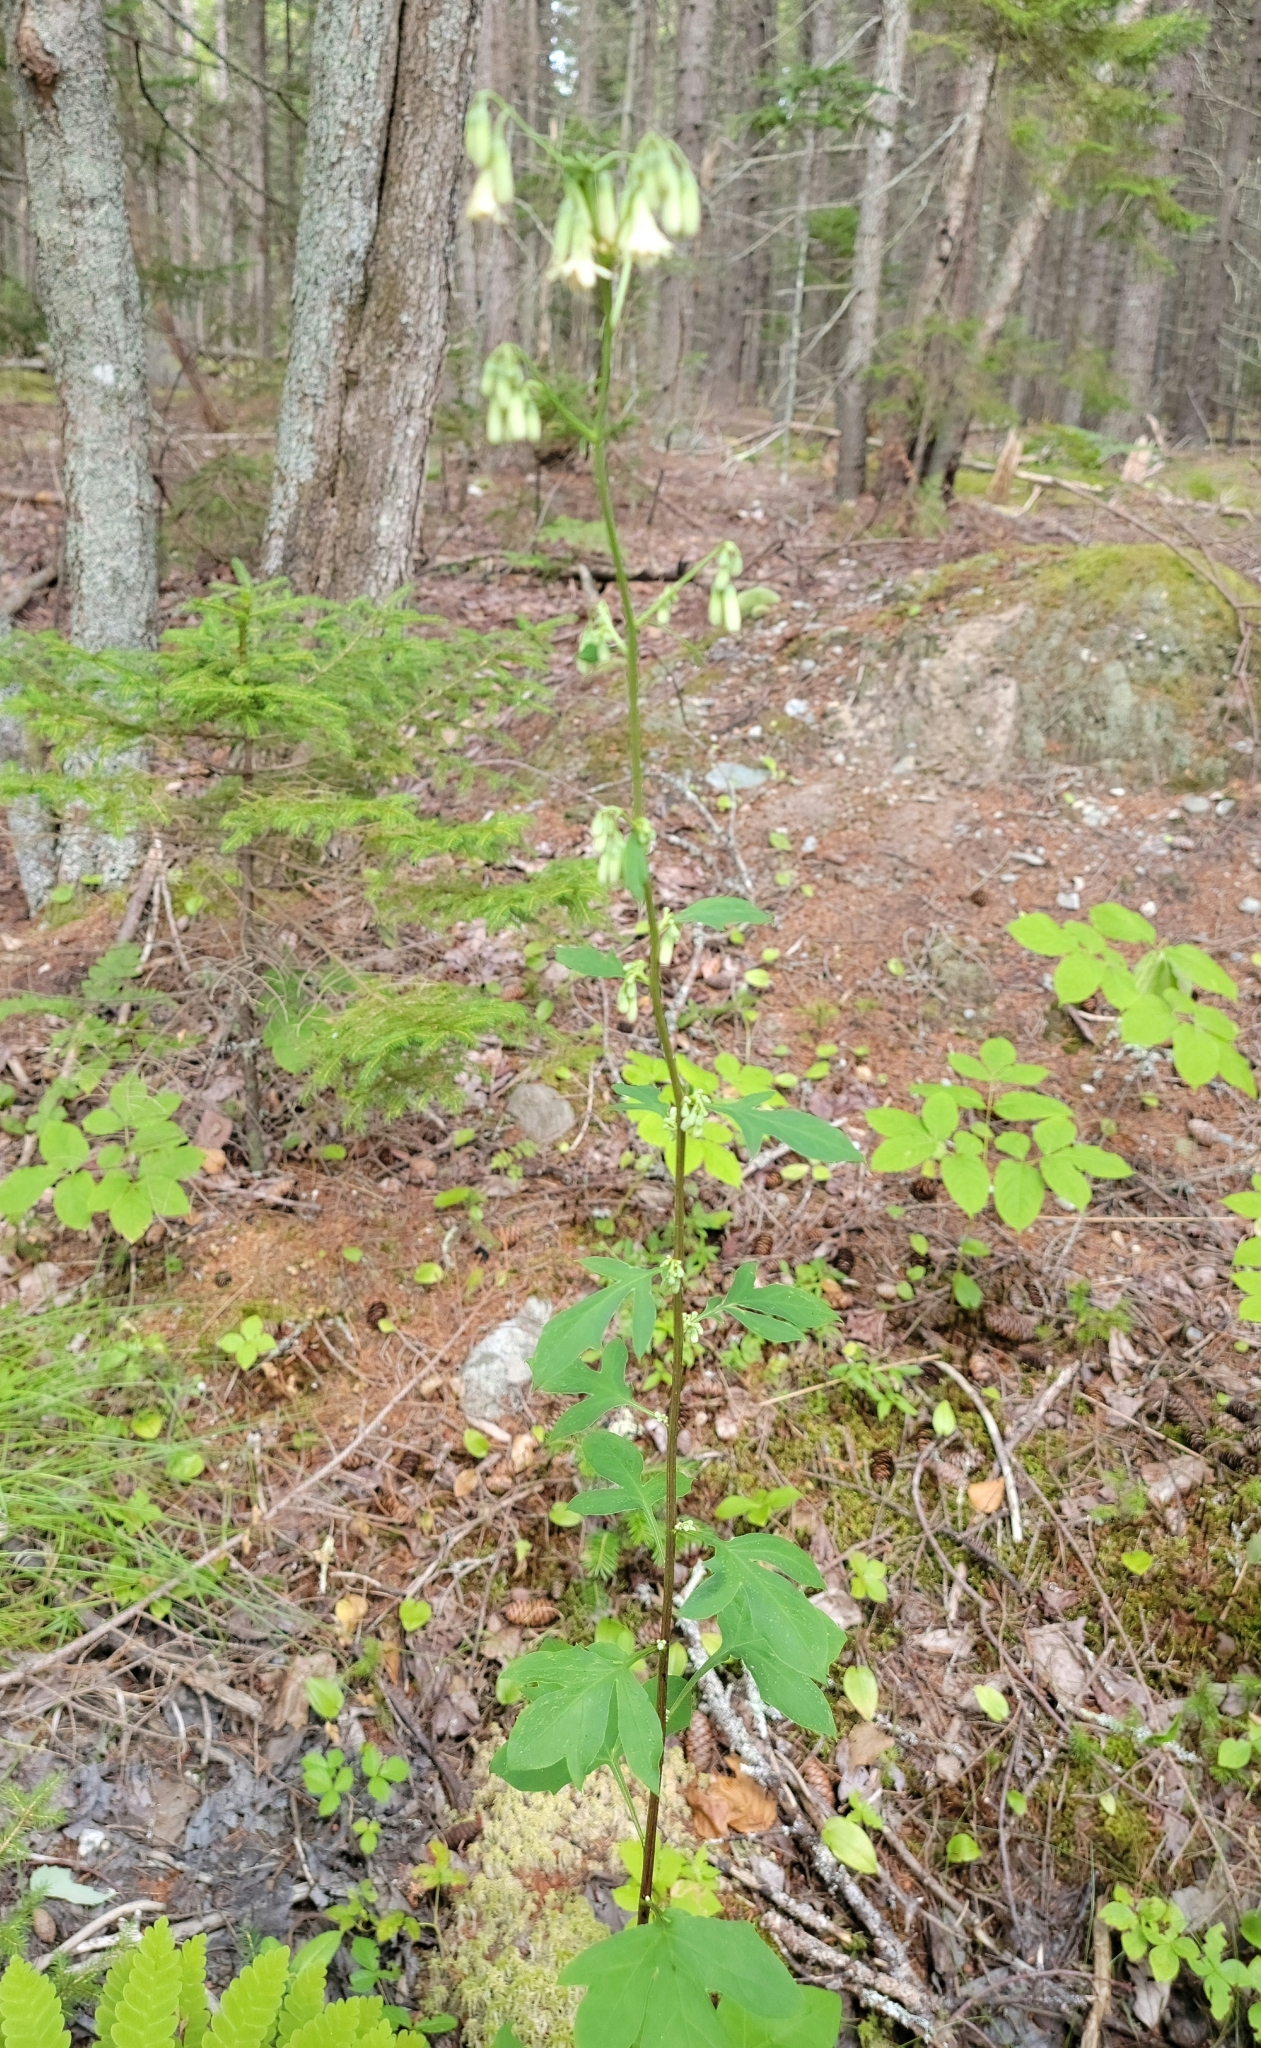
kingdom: Plantae
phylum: Tracheophyta
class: Magnoliopsida
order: Asterales
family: Asteraceae
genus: Nabalus
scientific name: Nabalus trifoliolatus
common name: Gall-of-the-earth
